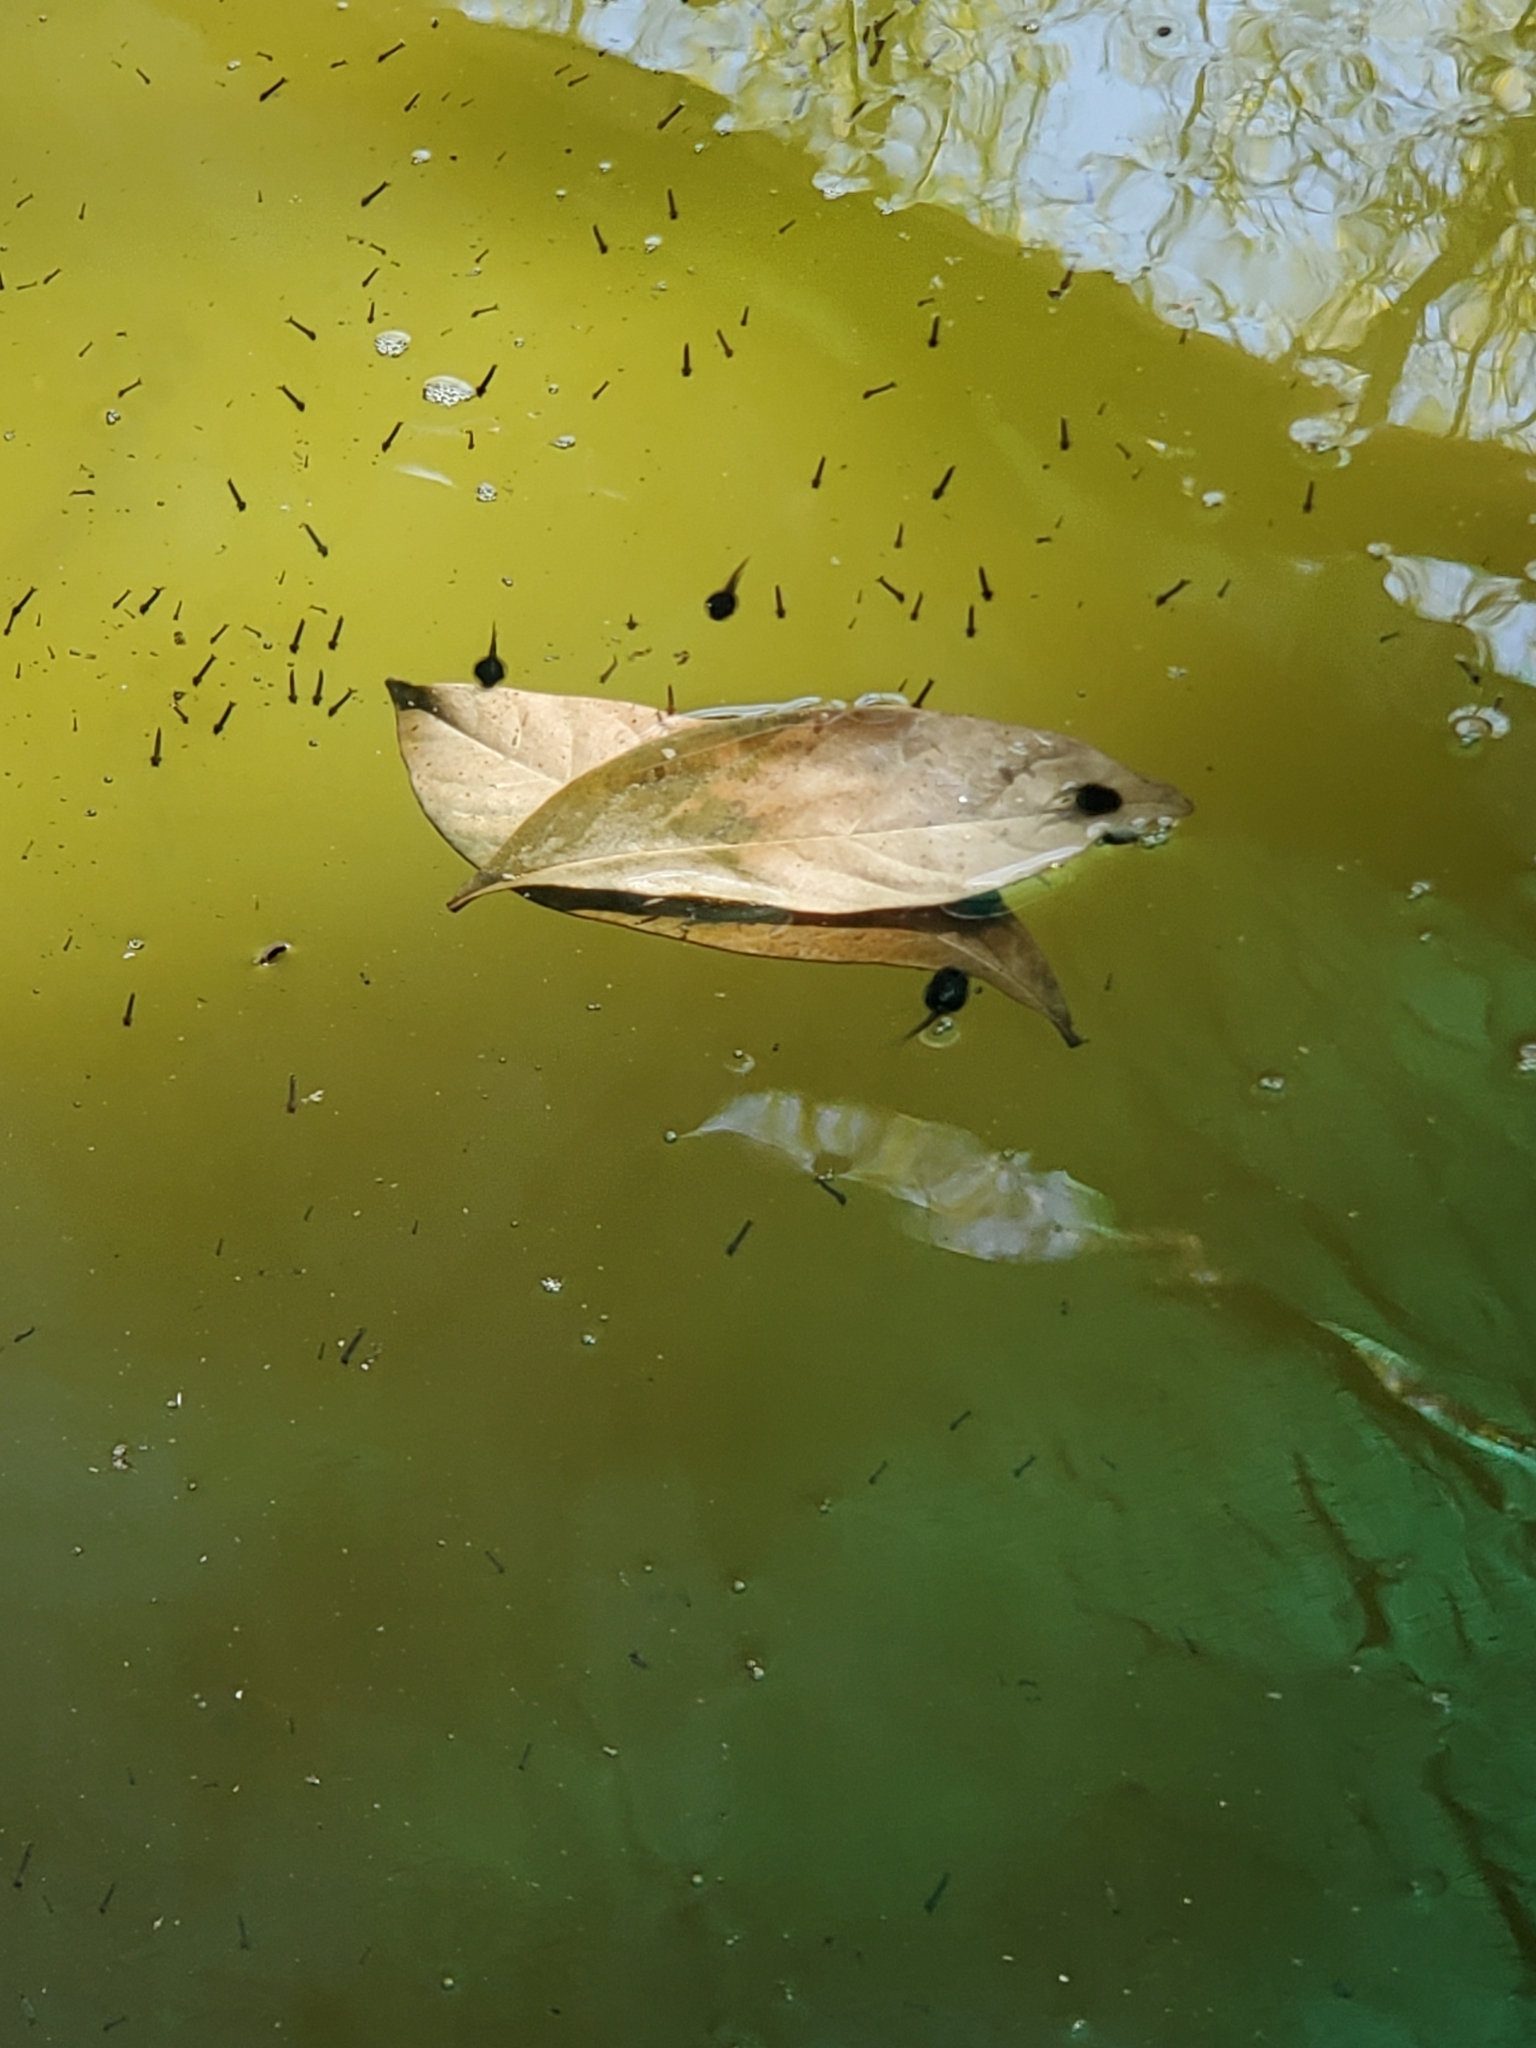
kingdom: Animalia
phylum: Chordata
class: Amphibia
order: Anura
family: Hylidae
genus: Pseudacris
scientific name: Pseudacris regilla
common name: Pacific chorus frog
